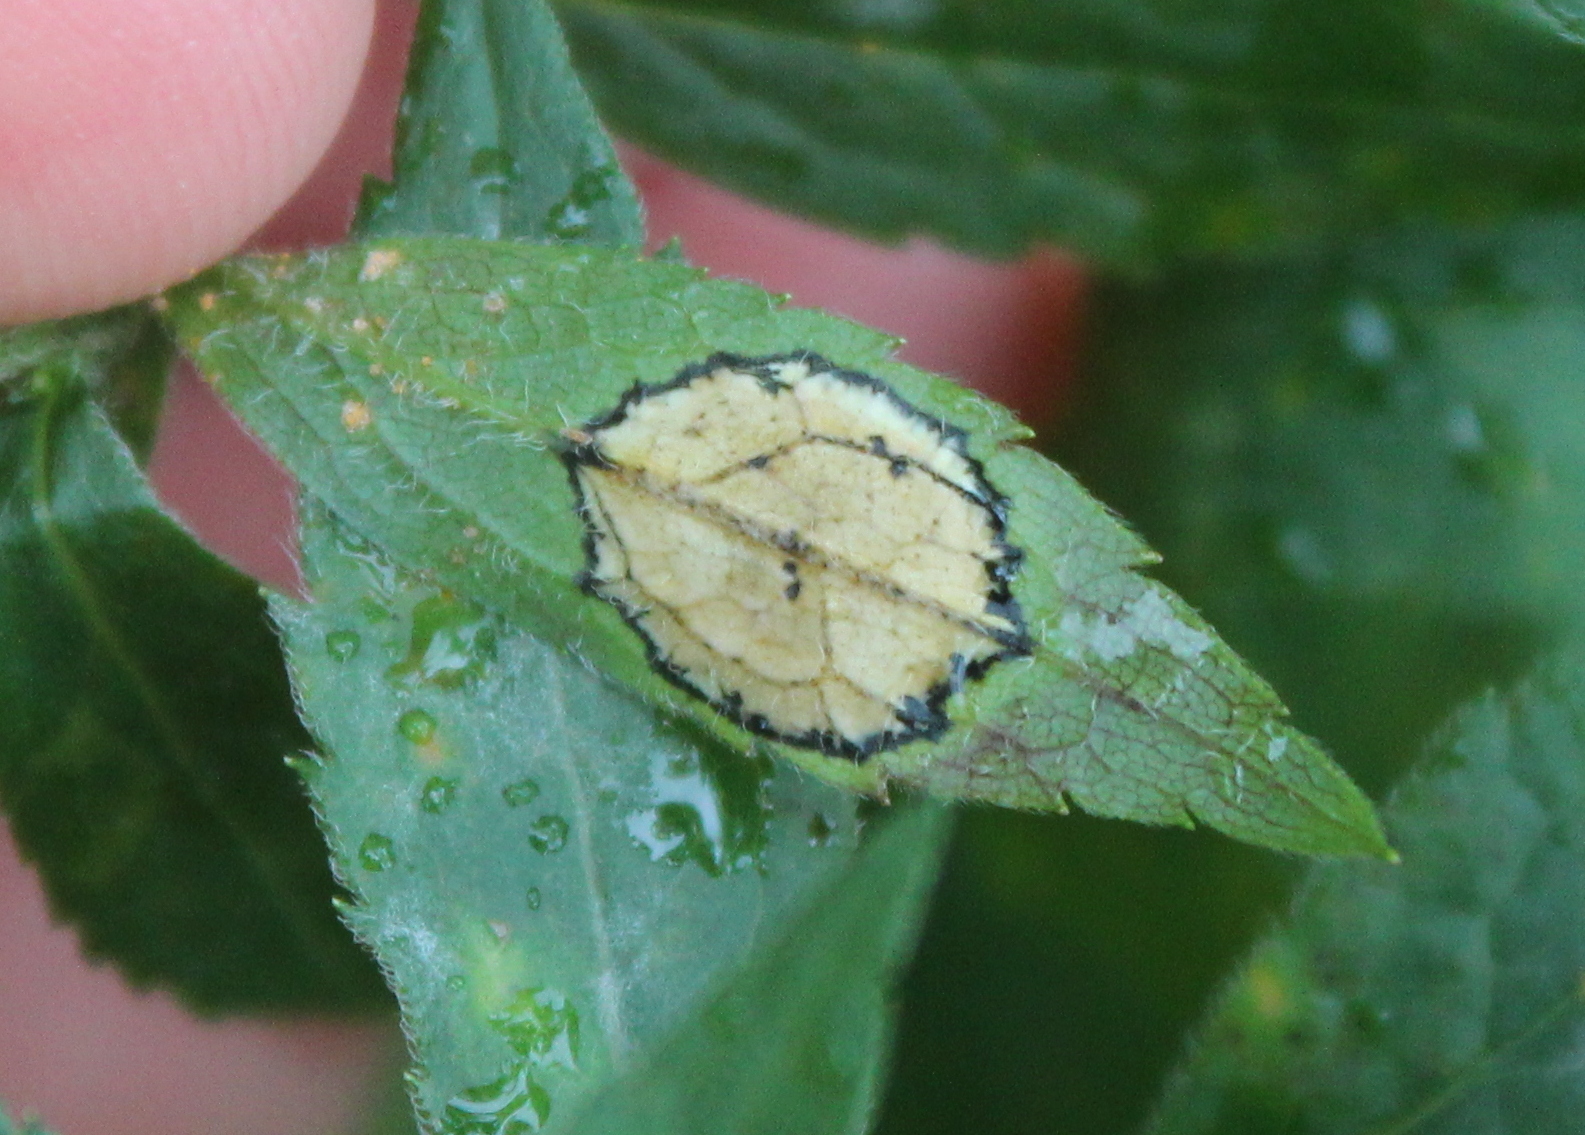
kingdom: Animalia
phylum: Arthropoda
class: Insecta
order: Diptera
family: Cecidomyiidae
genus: Asteromyia
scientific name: Asteromyia carbonifera
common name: Carbonifera goldenrod gall midge
